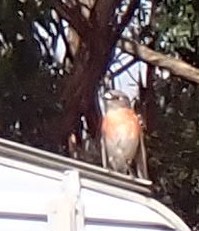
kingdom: Animalia
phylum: Chordata
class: Aves
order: Passeriformes
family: Petroicidae
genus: Petroica
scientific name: Petroica boodang
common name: Scarlet robin
